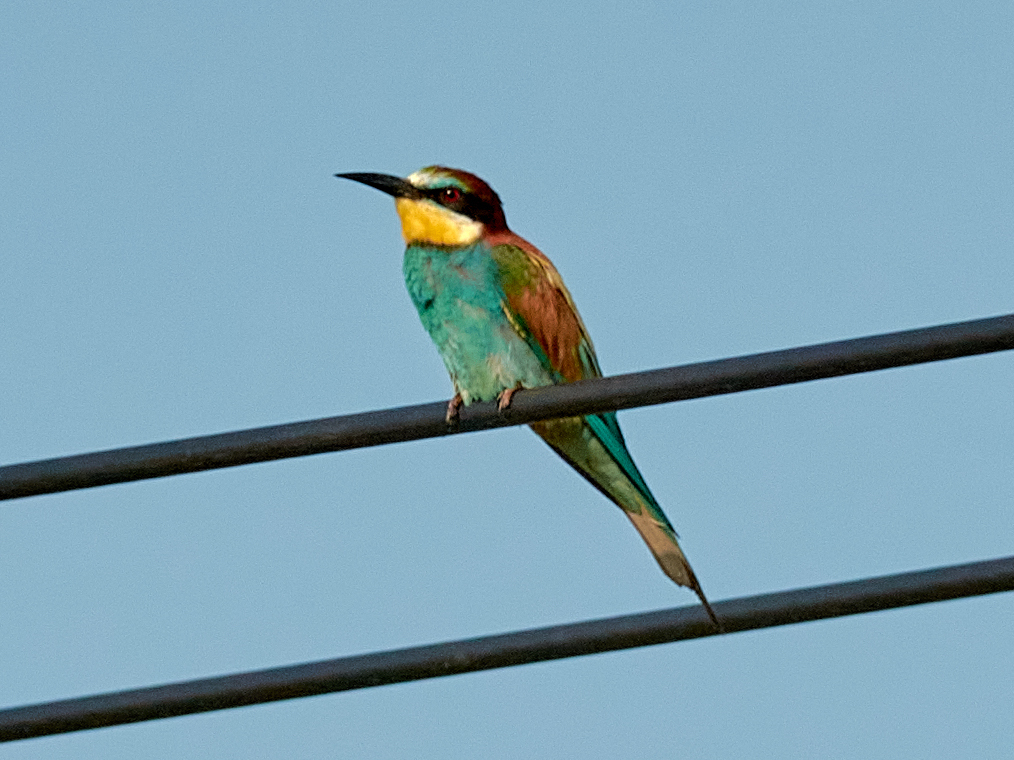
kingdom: Animalia
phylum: Chordata
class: Aves
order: Coraciiformes
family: Meropidae
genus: Merops
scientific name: Merops apiaster
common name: European bee-eater
